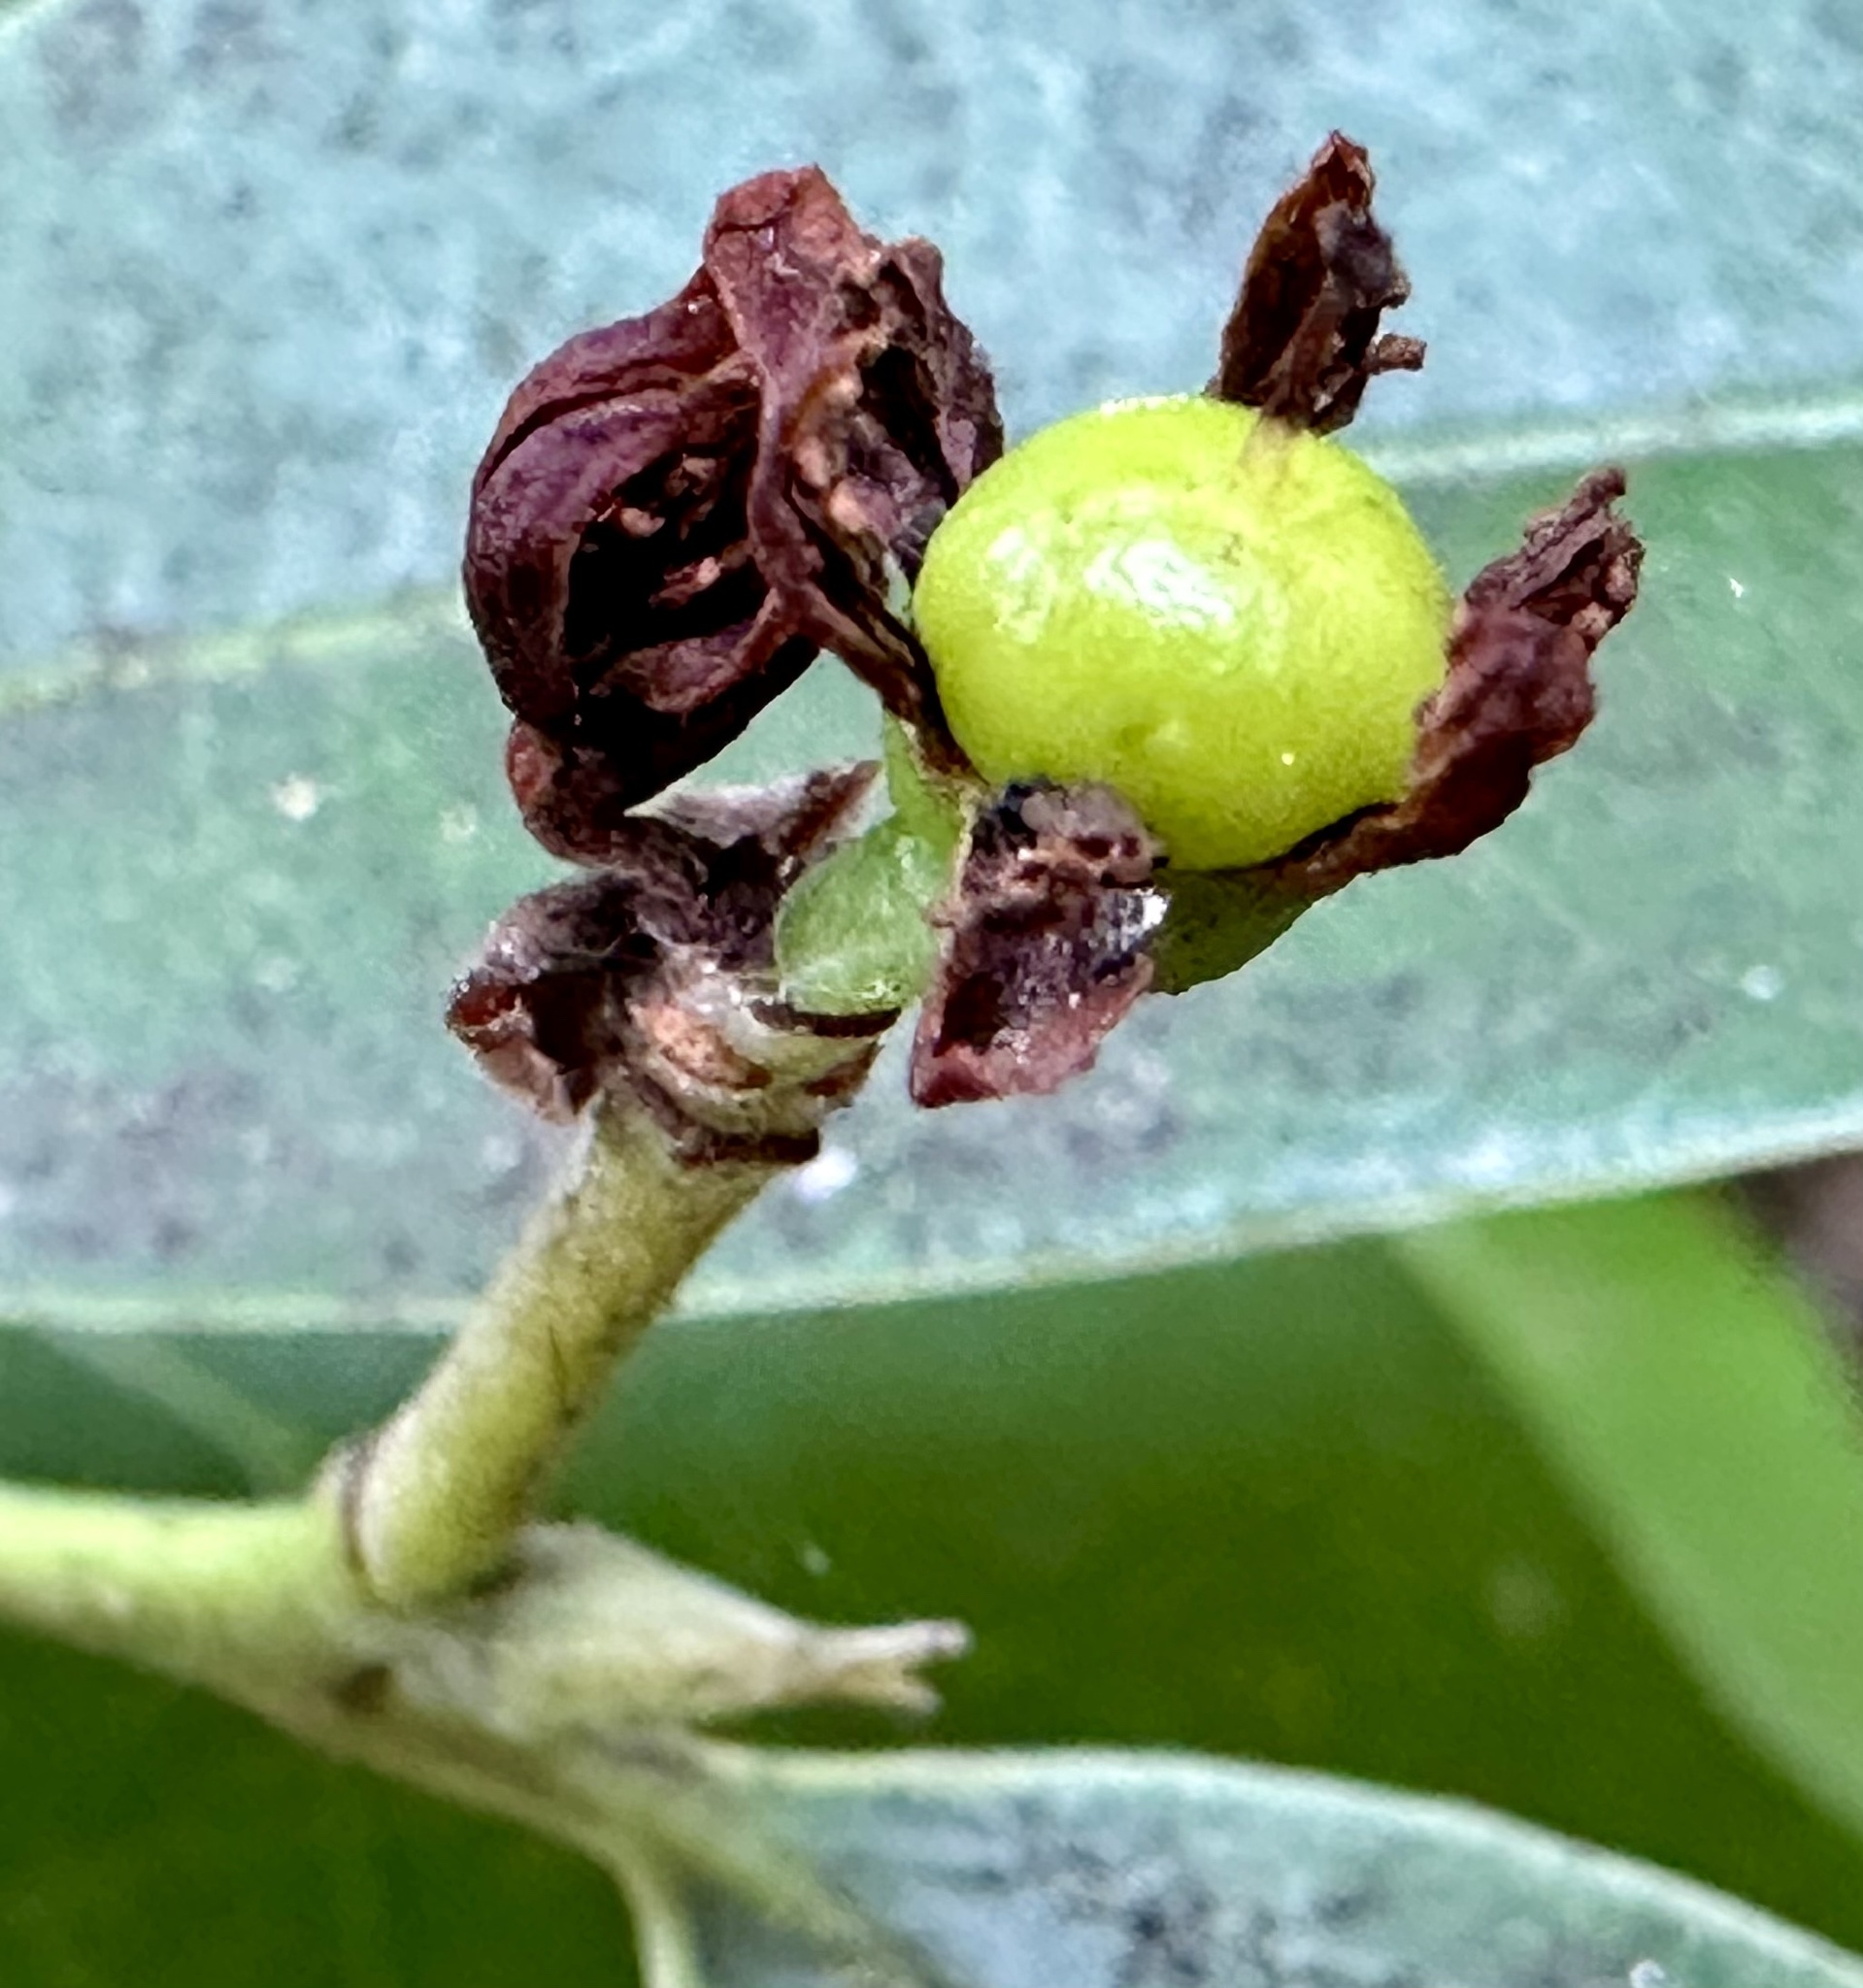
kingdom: Plantae
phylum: Tracheophyta
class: Magnoliopsida
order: Laurales
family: Lauraceae
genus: Umbellularia
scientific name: Umbellularia californica
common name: California bay
